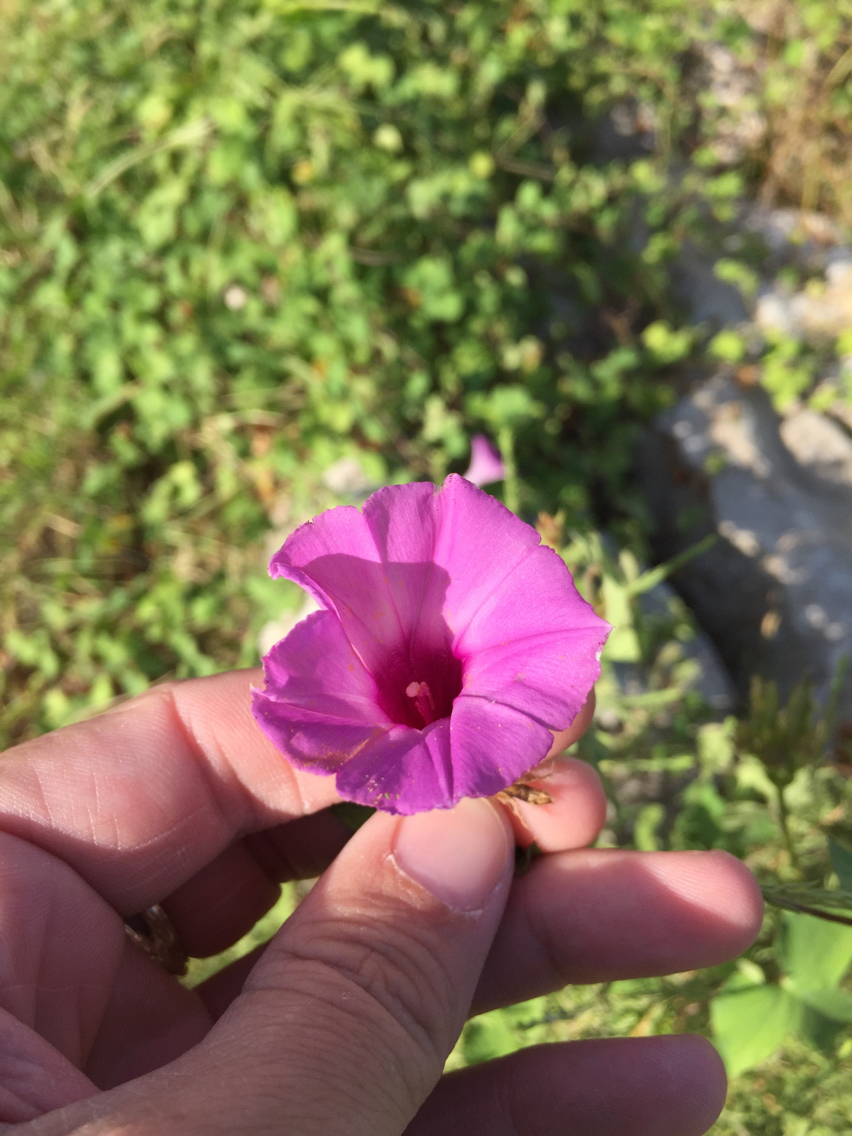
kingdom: Plantae
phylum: Tracheophyta
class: Magnoliopsida
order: Solanales
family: Convolvulaceae
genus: Ipomoea
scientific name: Ipomoea cordatotriloba
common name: Cotton morning glory
